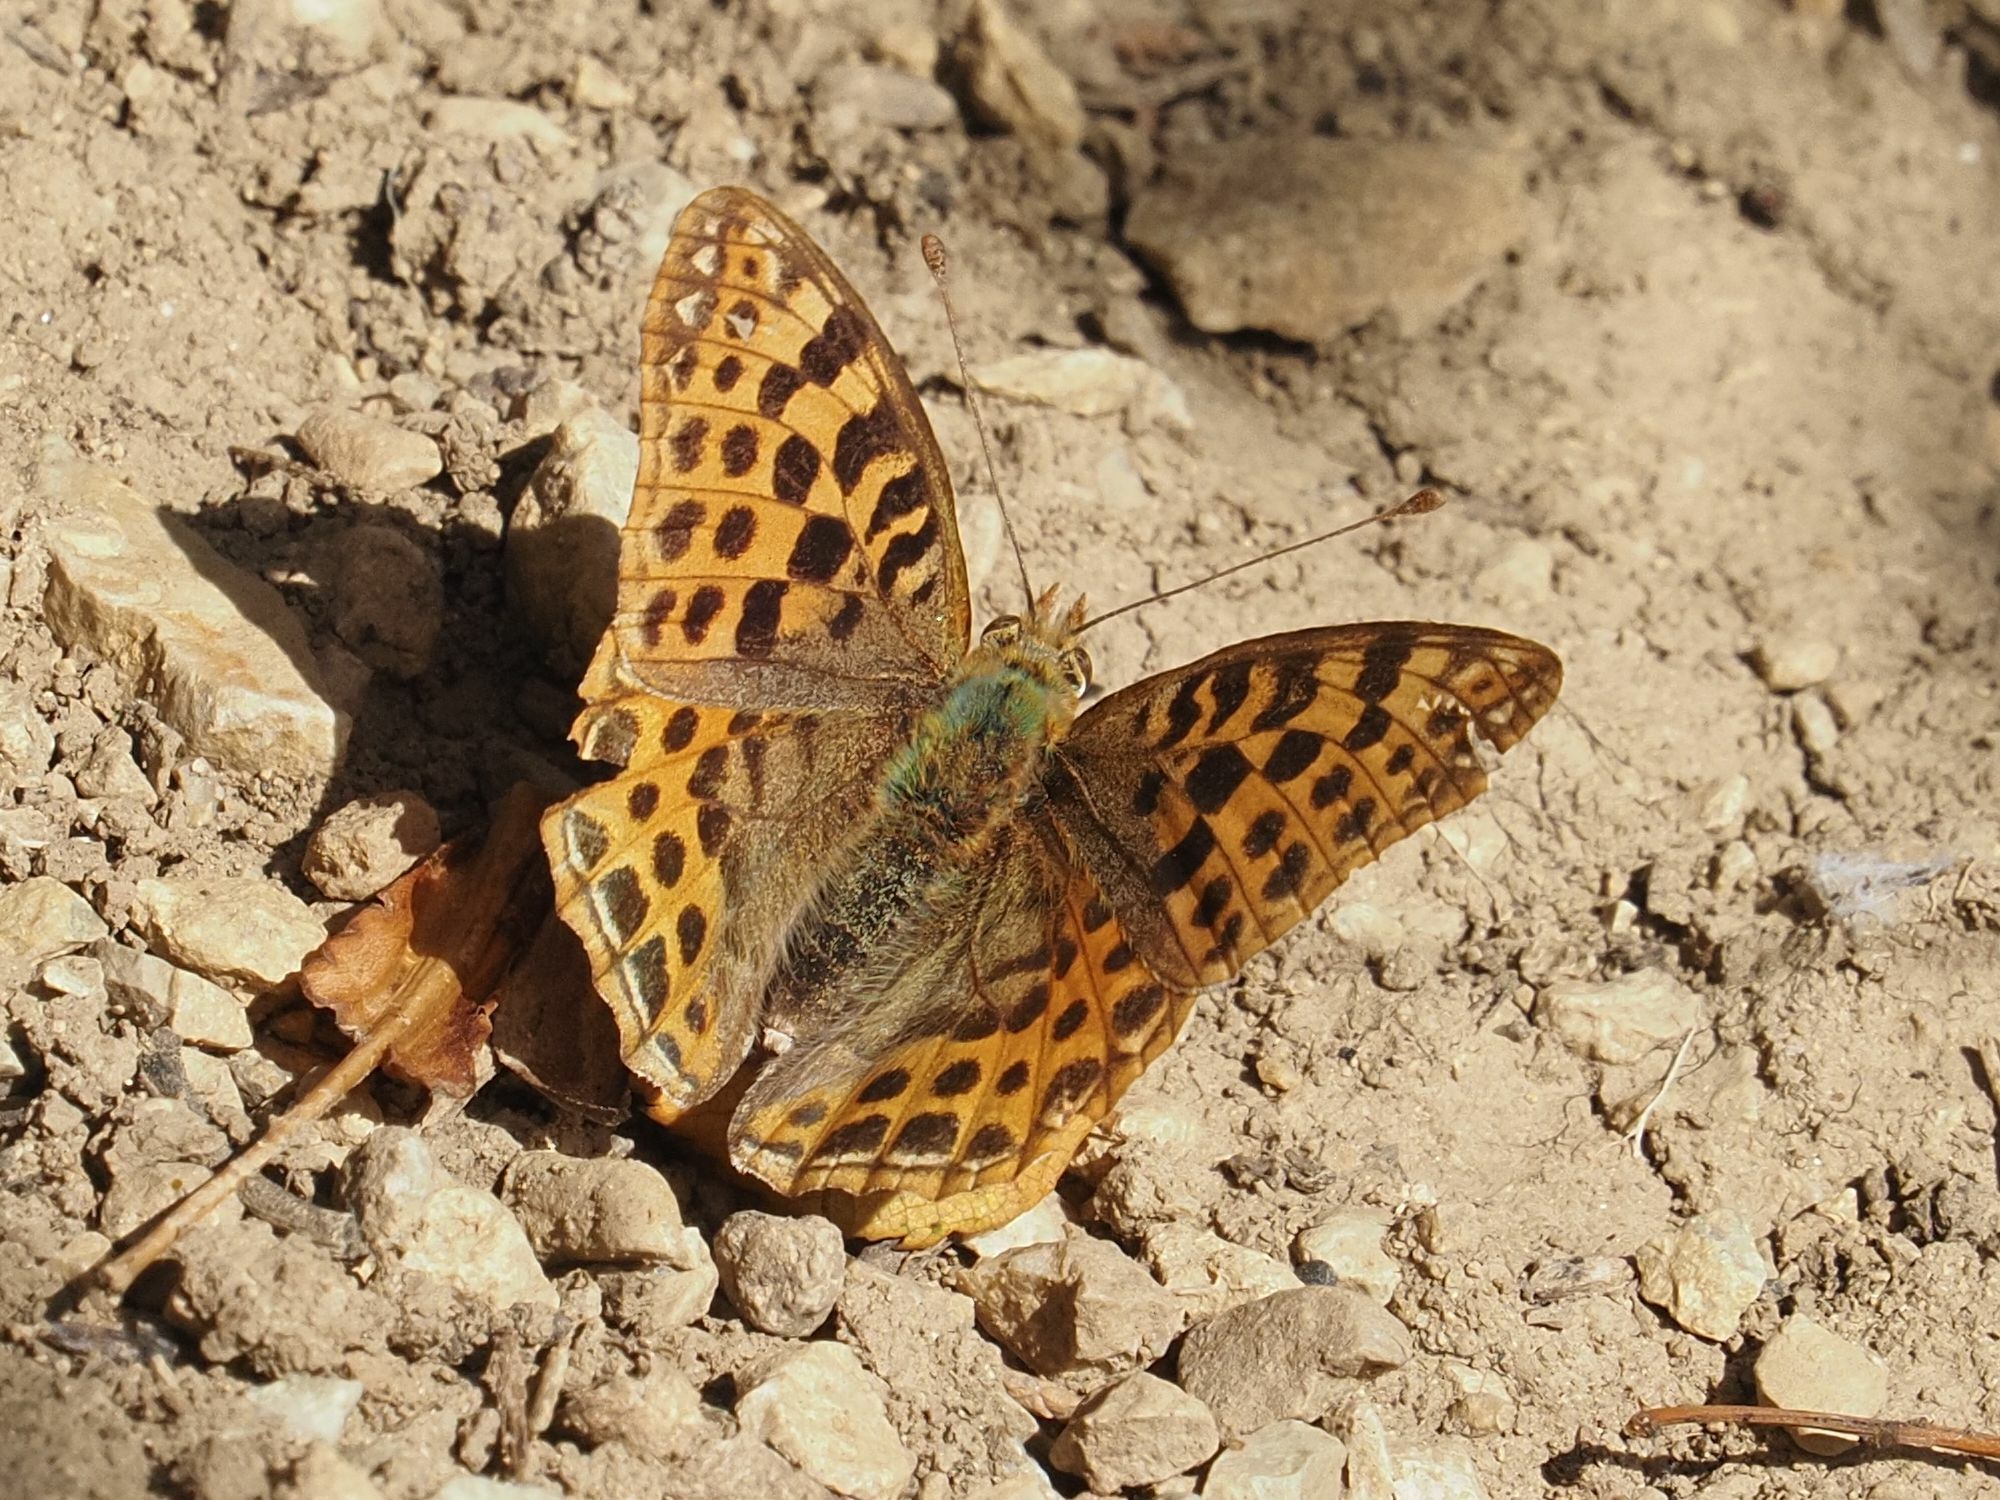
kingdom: Animalia
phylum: Arthropoda
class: Insecta
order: Lepidoptera
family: Nymphalidae
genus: Issoria
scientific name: Issoria lathonia
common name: Queen of spain fritillary
